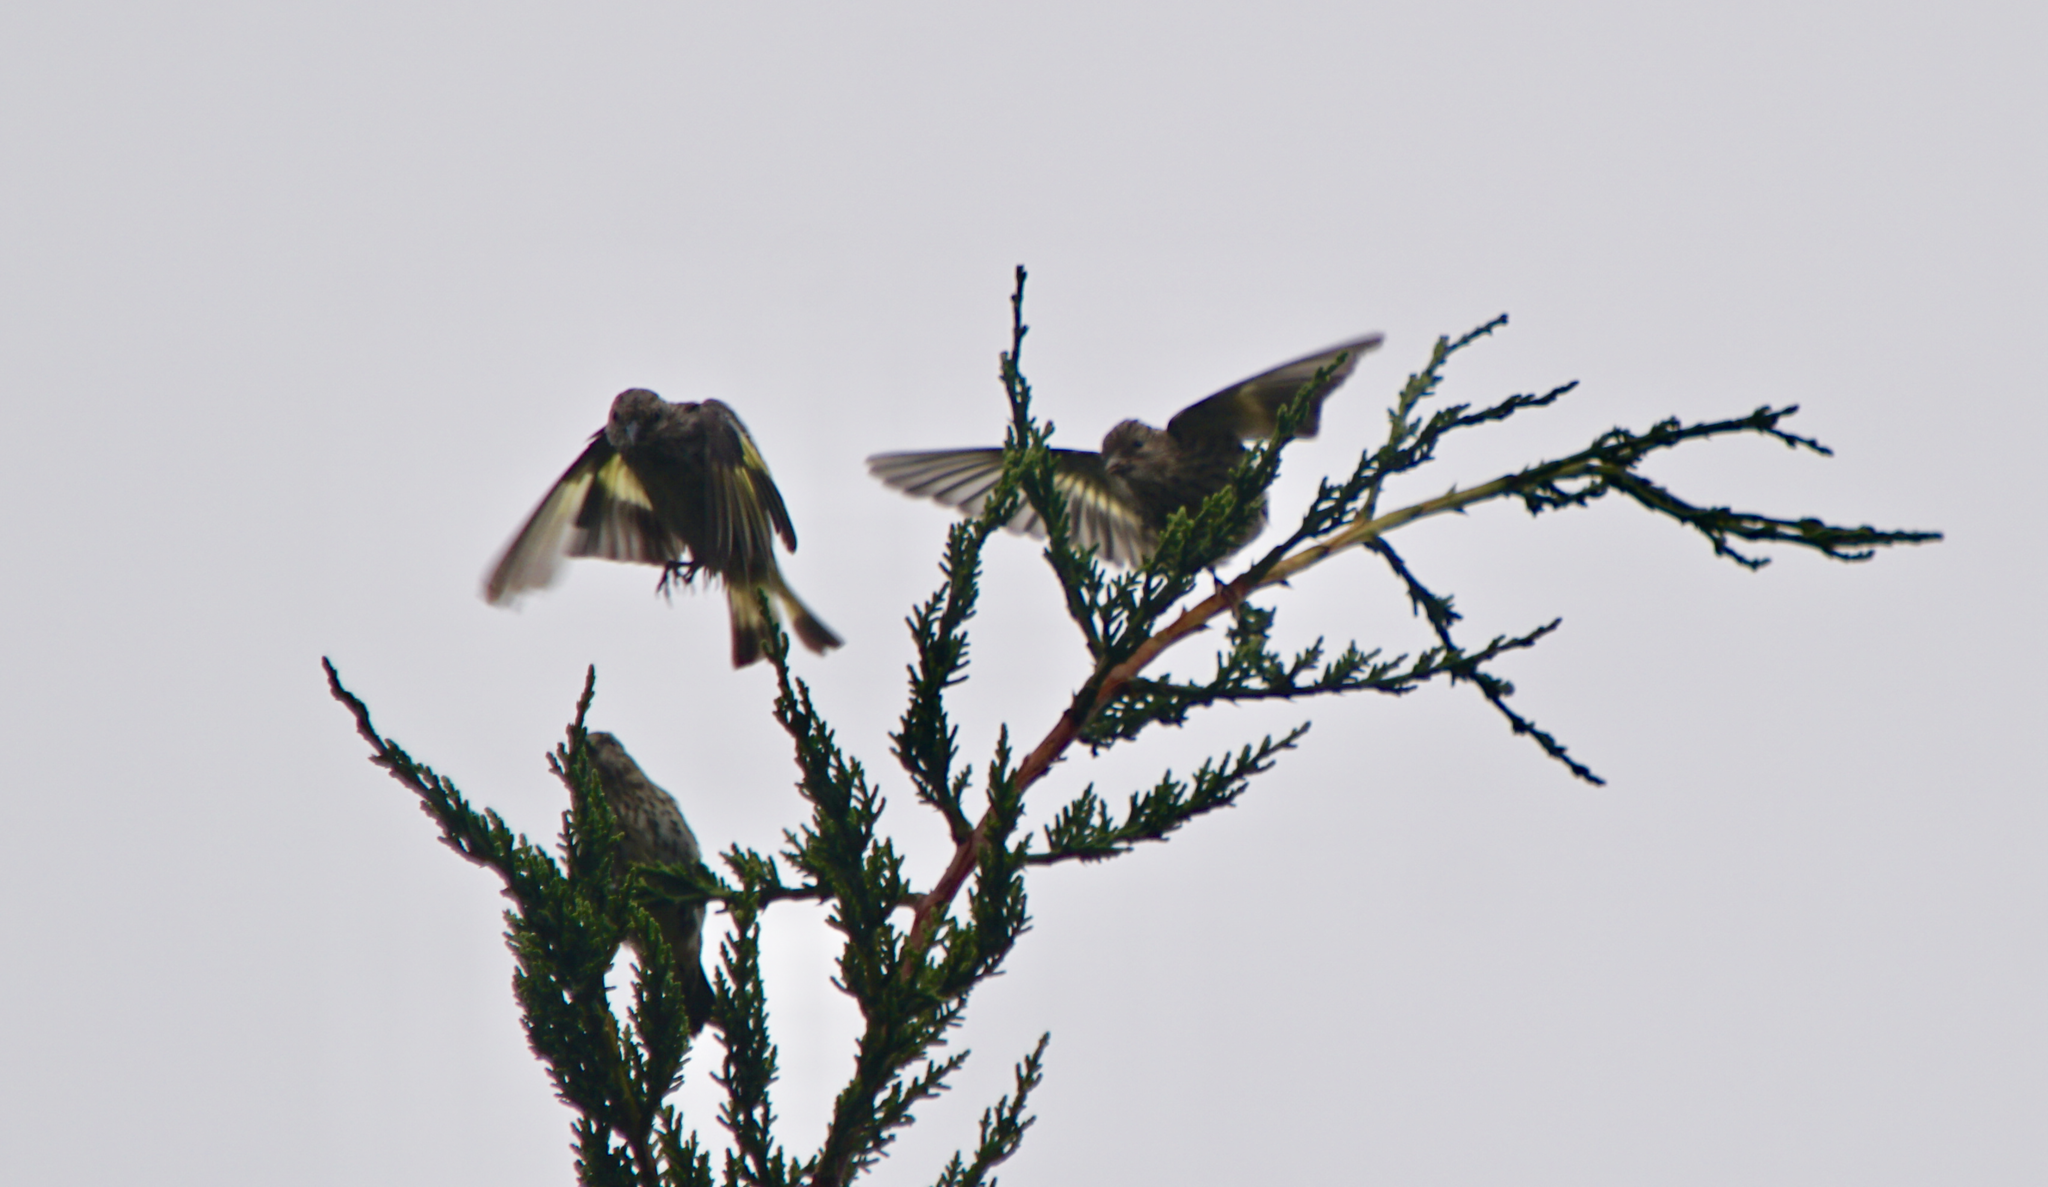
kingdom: Animalia
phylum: Chordata
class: Aves
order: Passeriformes
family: Fringillidae
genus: Spinus
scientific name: Spinus pinus
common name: Pine siskin
